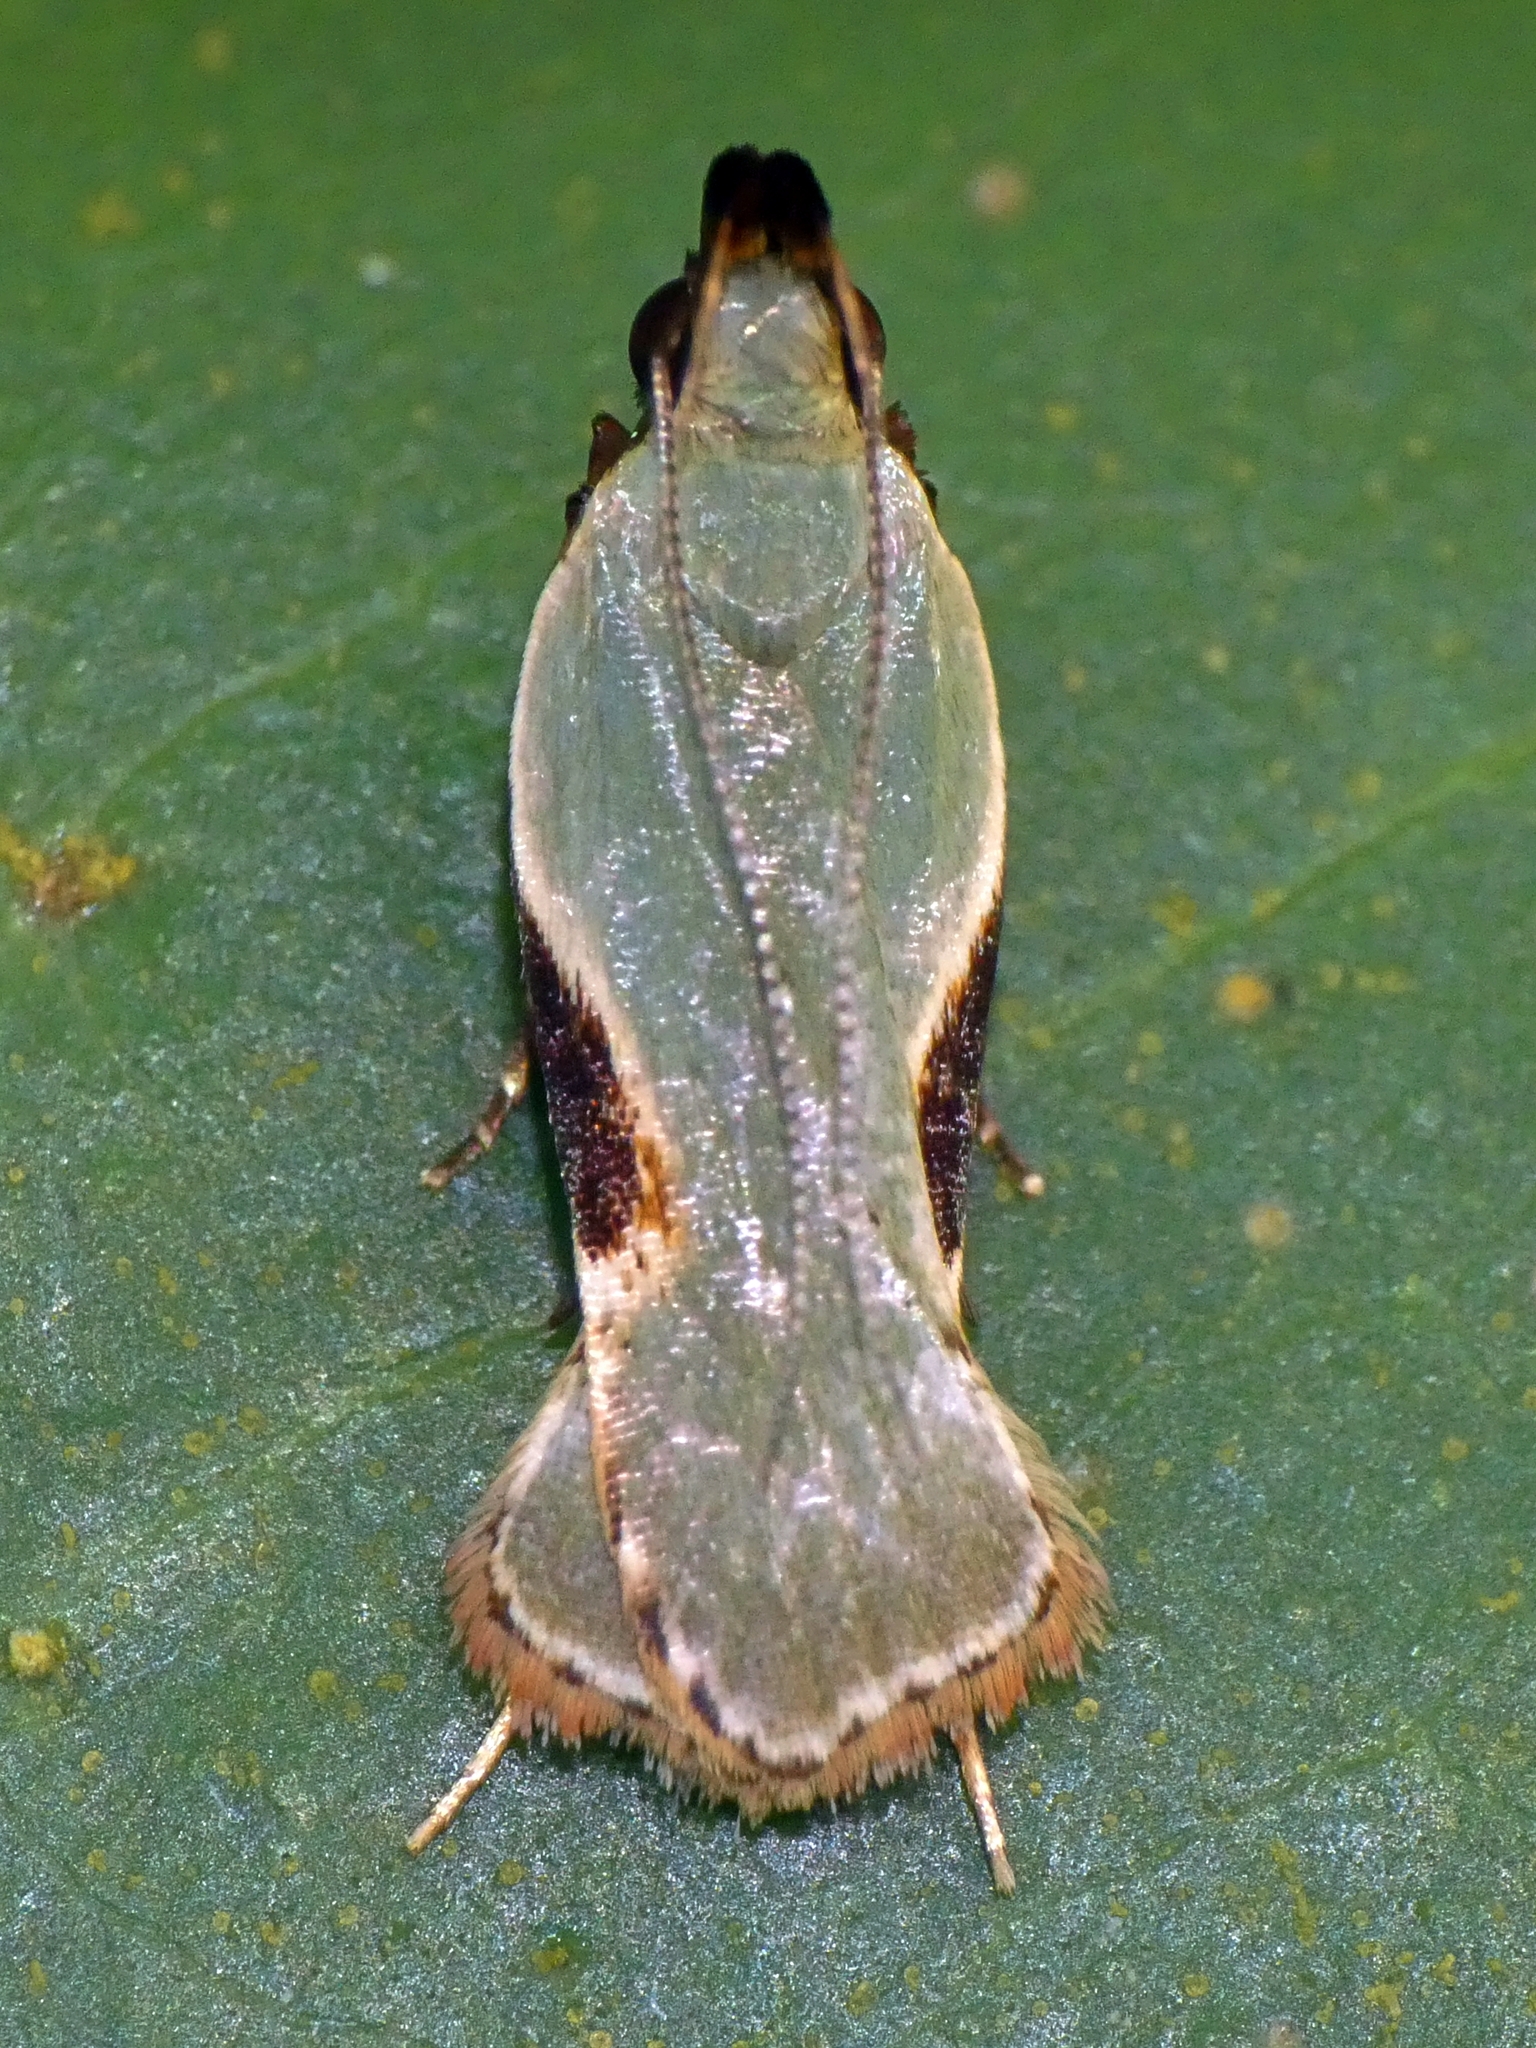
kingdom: Animalia
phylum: Arthropoda
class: Insecta
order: Lepidoptera
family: Gelechiidae
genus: Dichomeris
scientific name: Dichomeris ochreoviridella
